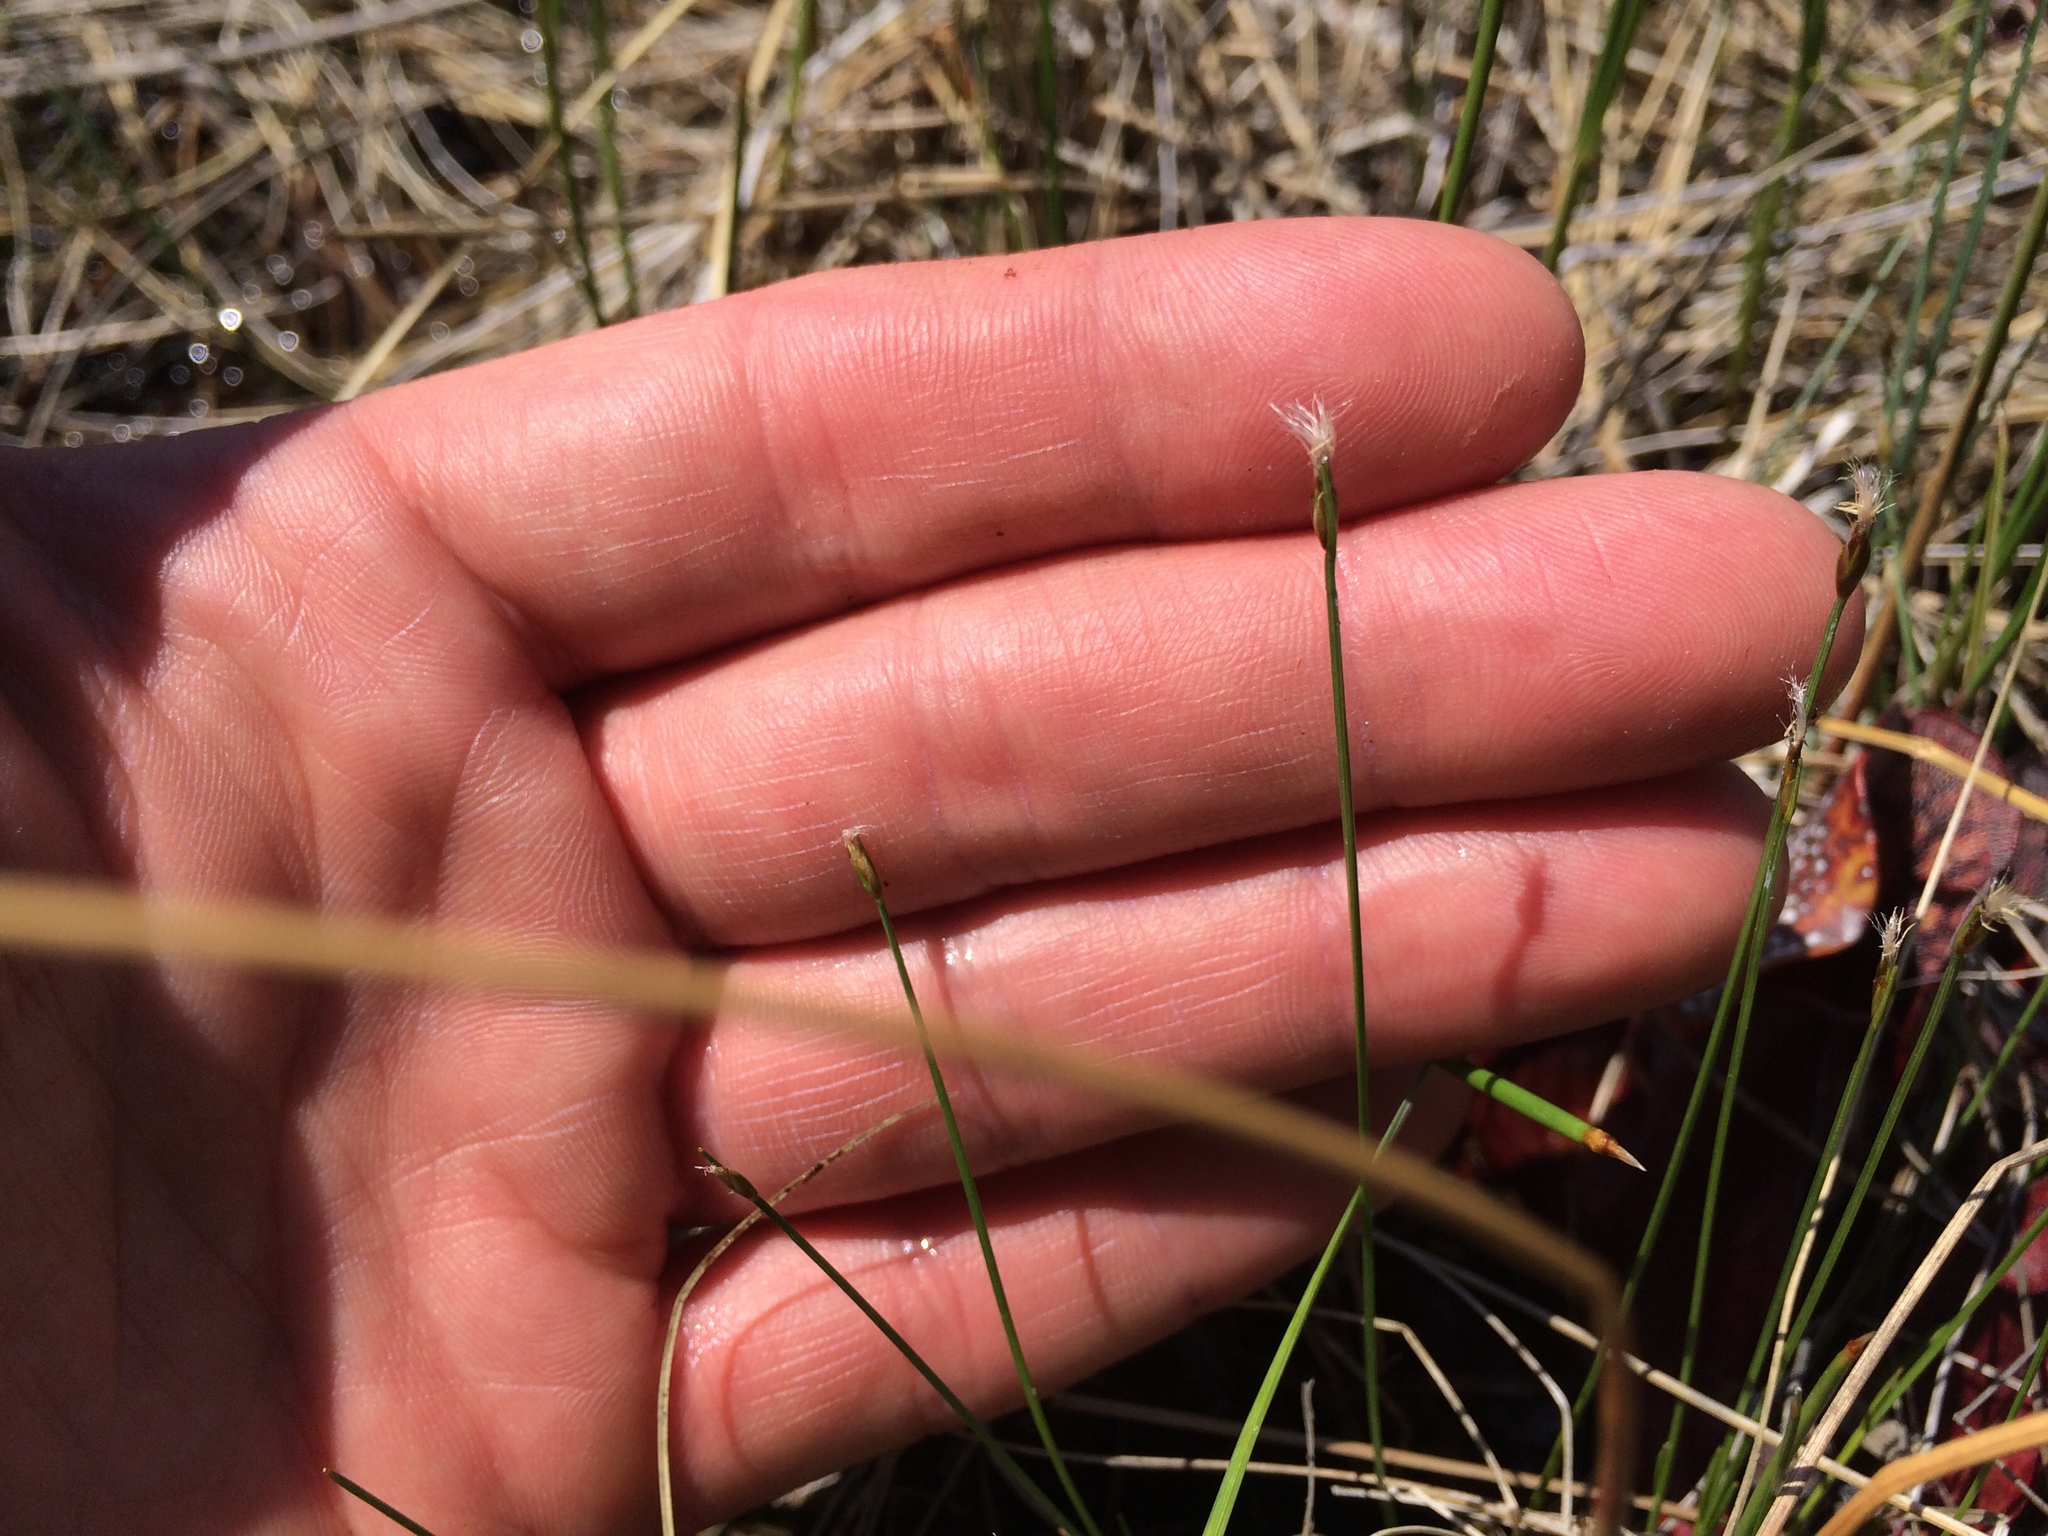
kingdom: Plantae
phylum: Tracheophyta
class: Liliopsida
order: Poales
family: Cyperaceae
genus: Trichophorum
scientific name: Trichophorum alpinum
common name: Alpine bulrush
